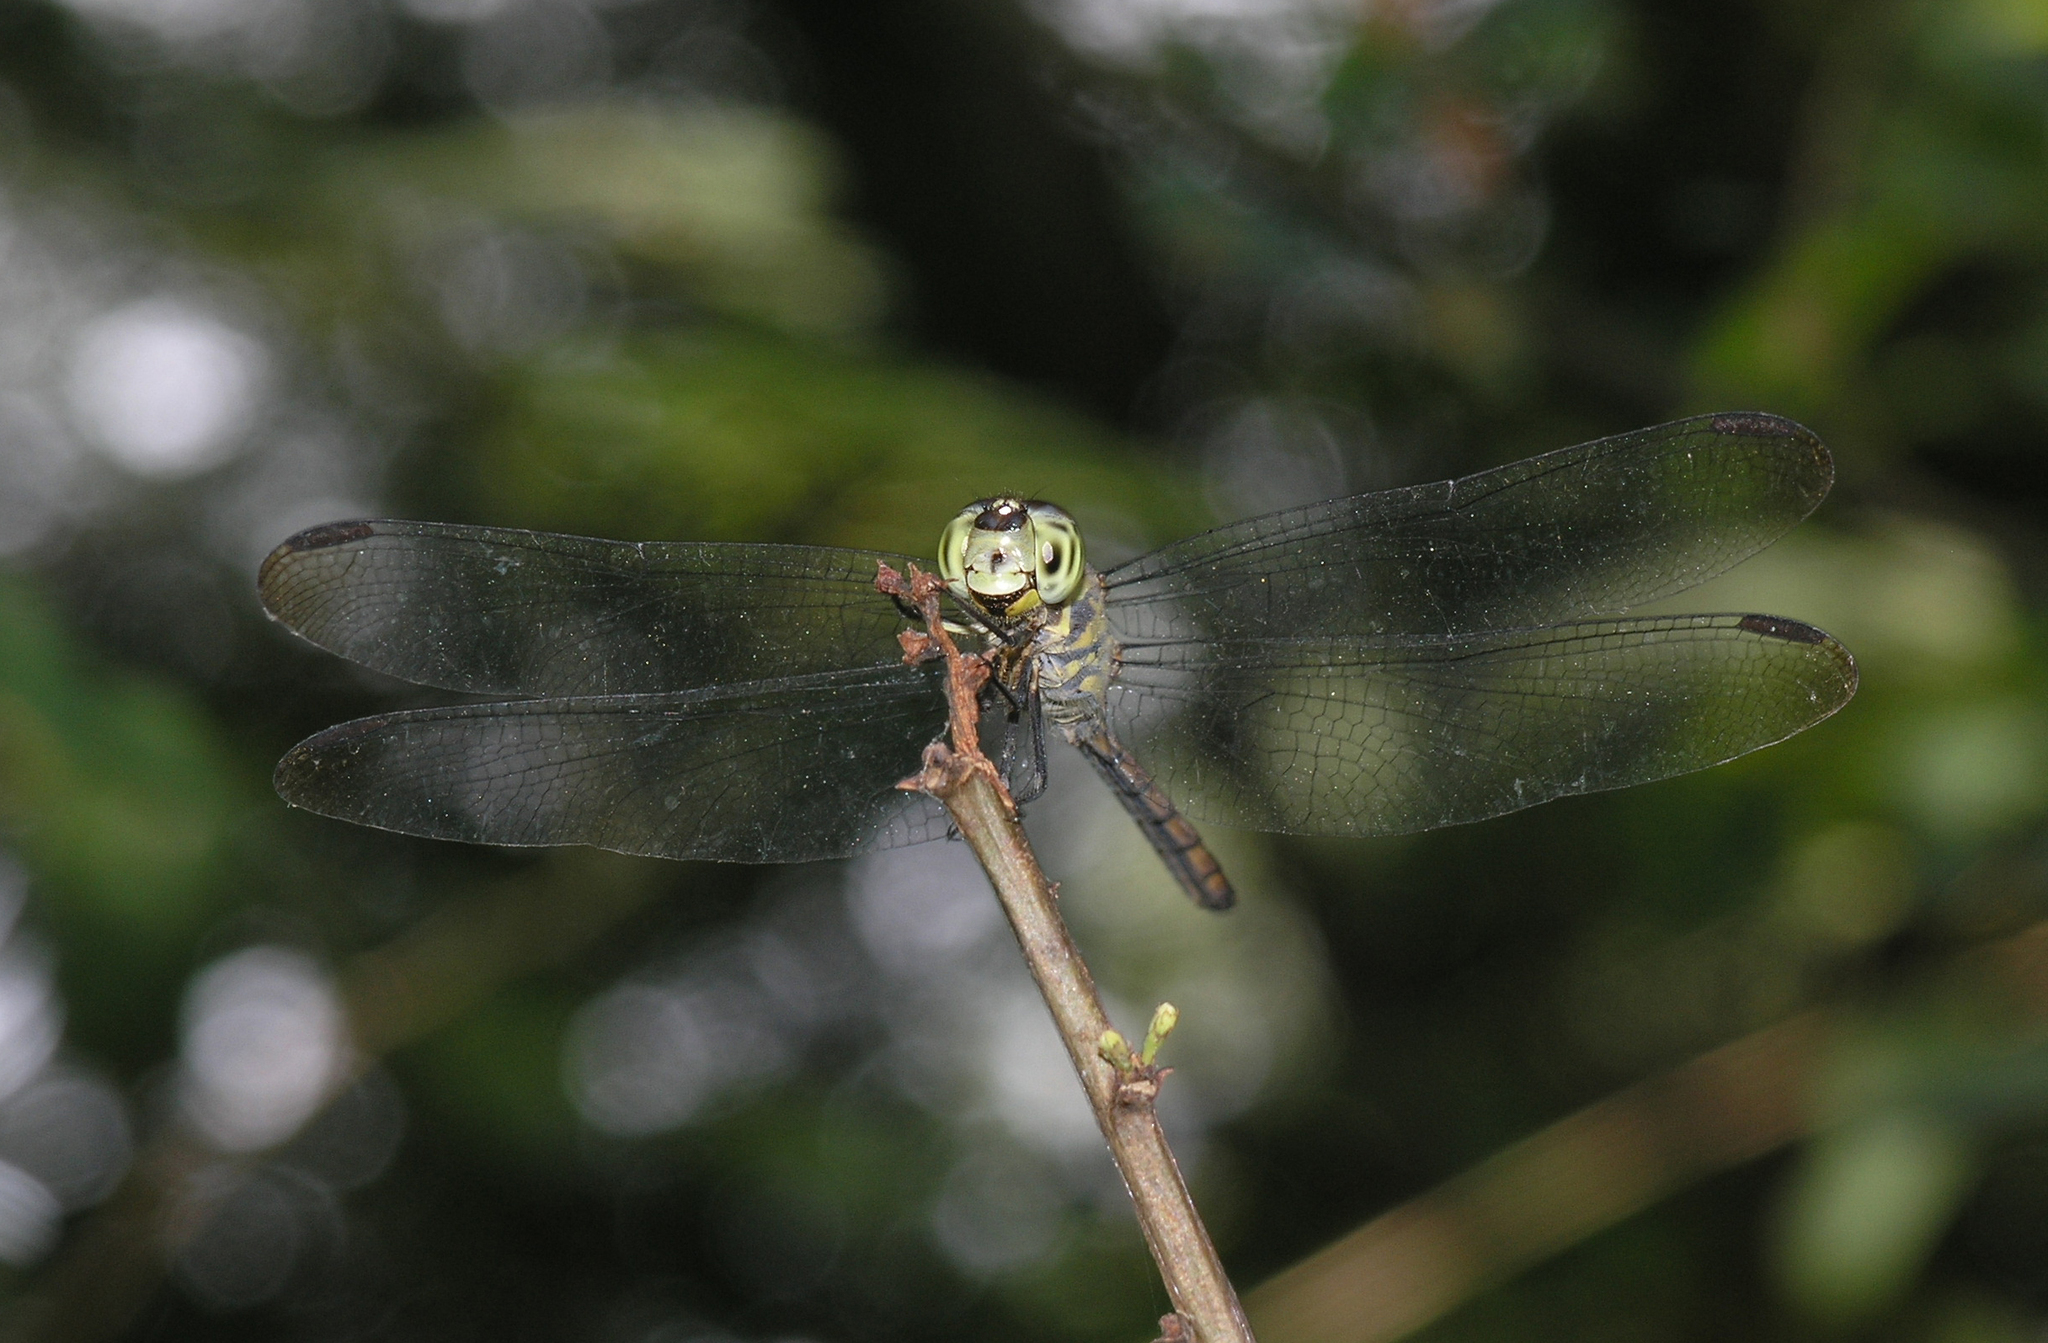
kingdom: Animalia
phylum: Arthropoda
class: Insecta
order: Odonata
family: Libellulidae
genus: Lathrecista
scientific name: Lathrecista asiatica
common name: Scarlet grenadier
